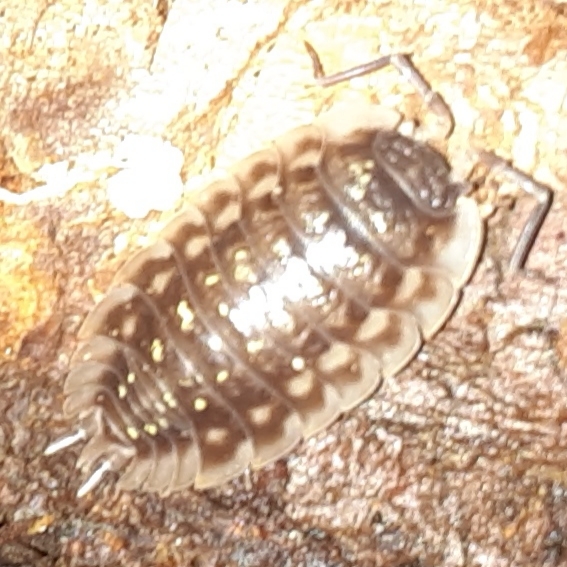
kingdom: Animalia
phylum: Arthropoda
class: Malacostraca
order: Isopoda
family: Oniscidae
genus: Oniscus
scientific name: Oniscus asellus
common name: Common shiny woodlouse
